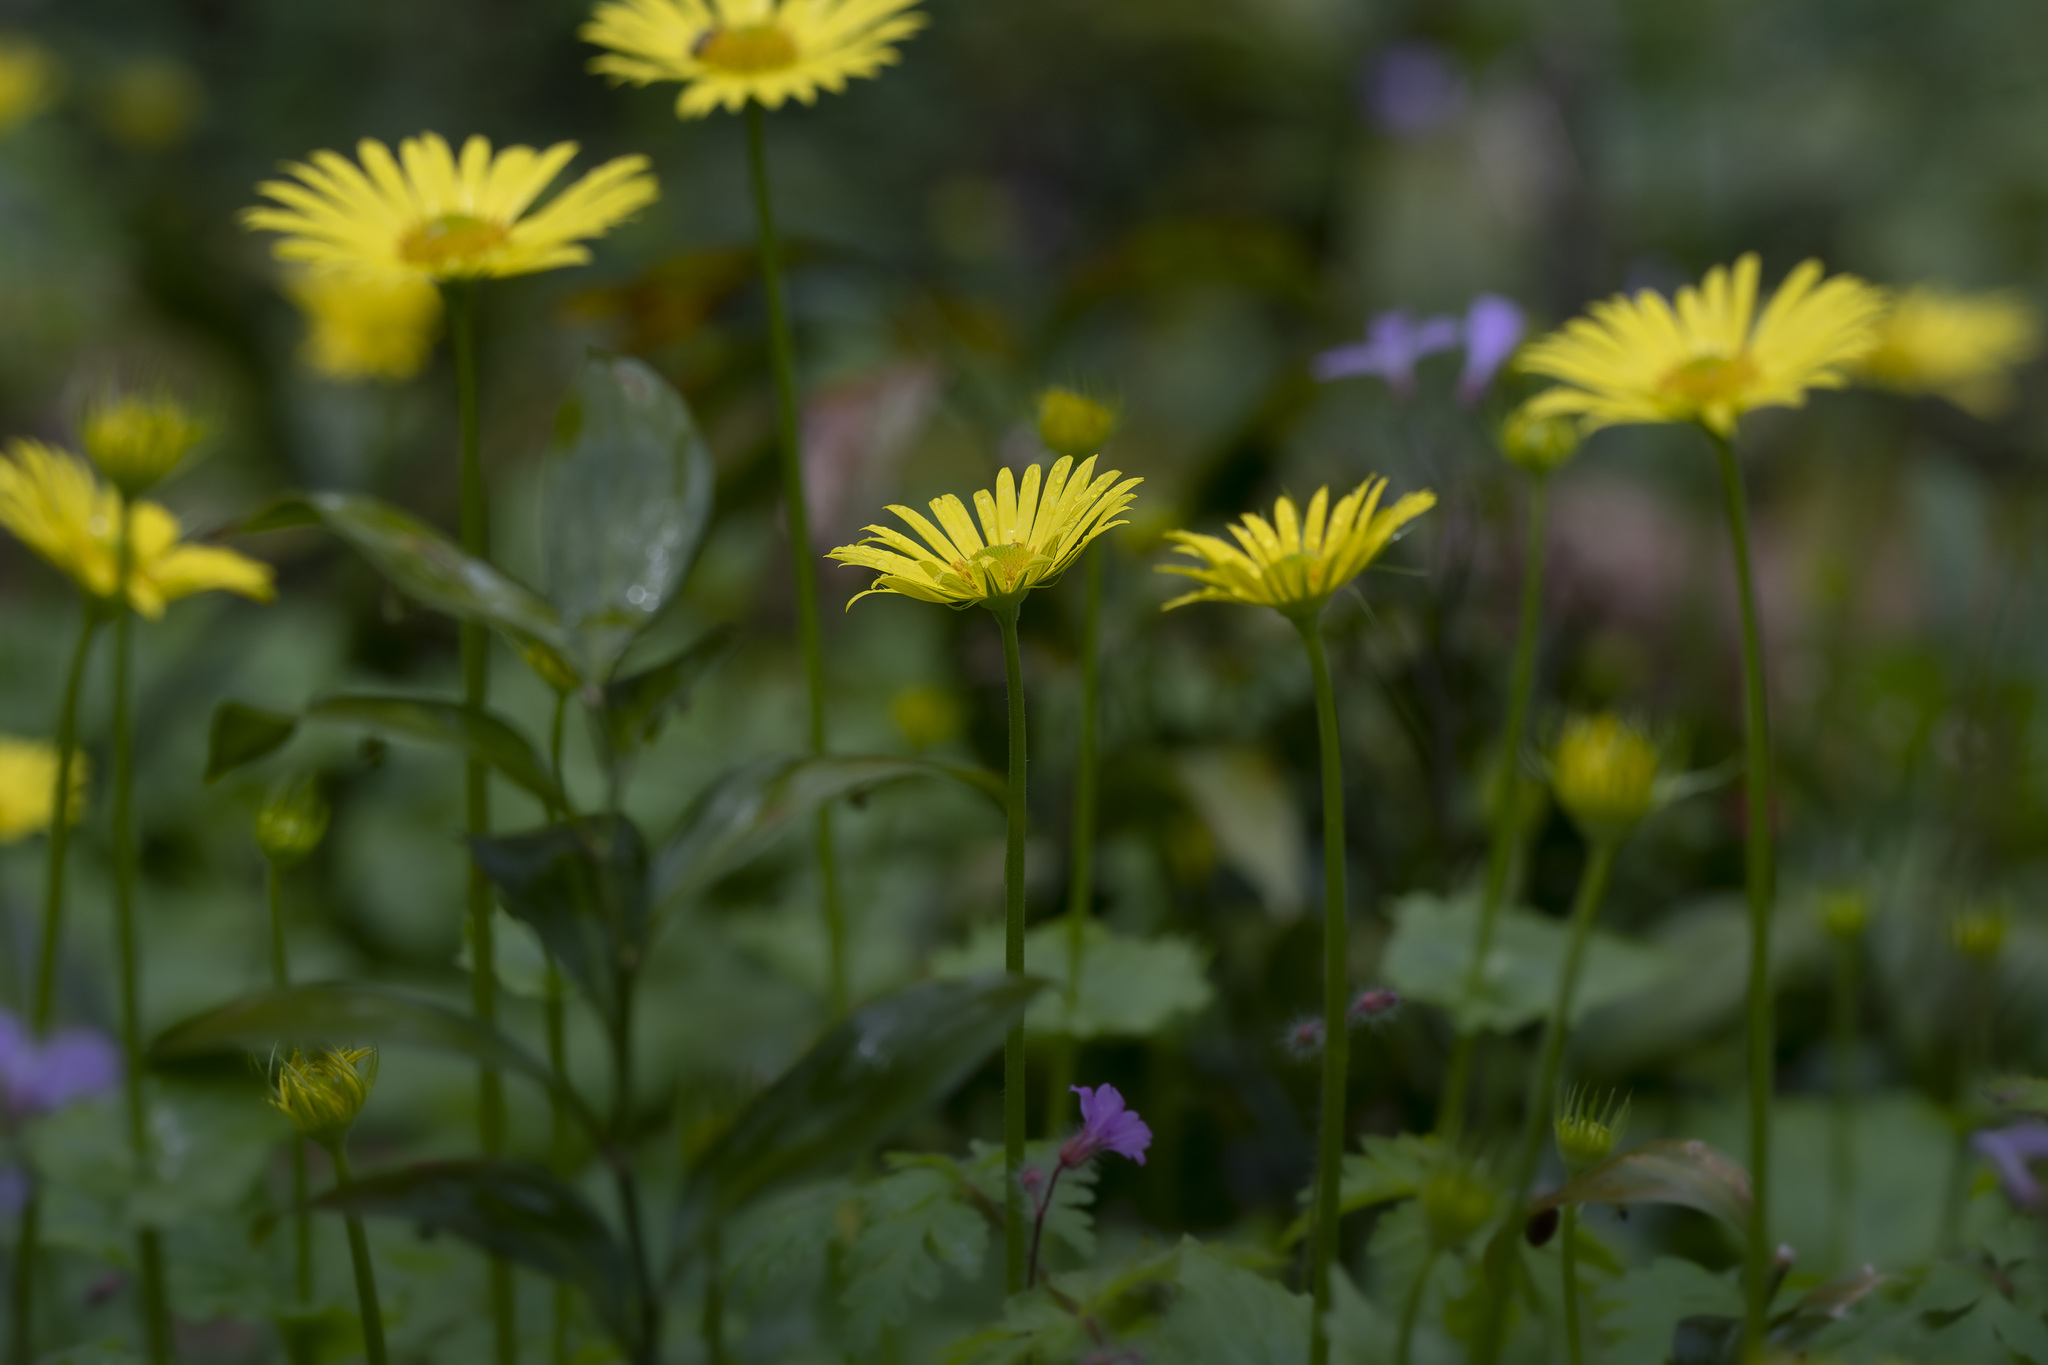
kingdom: Plantae
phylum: Tracheophyta
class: Magnoliopsida
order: Asterales
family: Asteraceae
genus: Doronicum
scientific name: Doronicum
